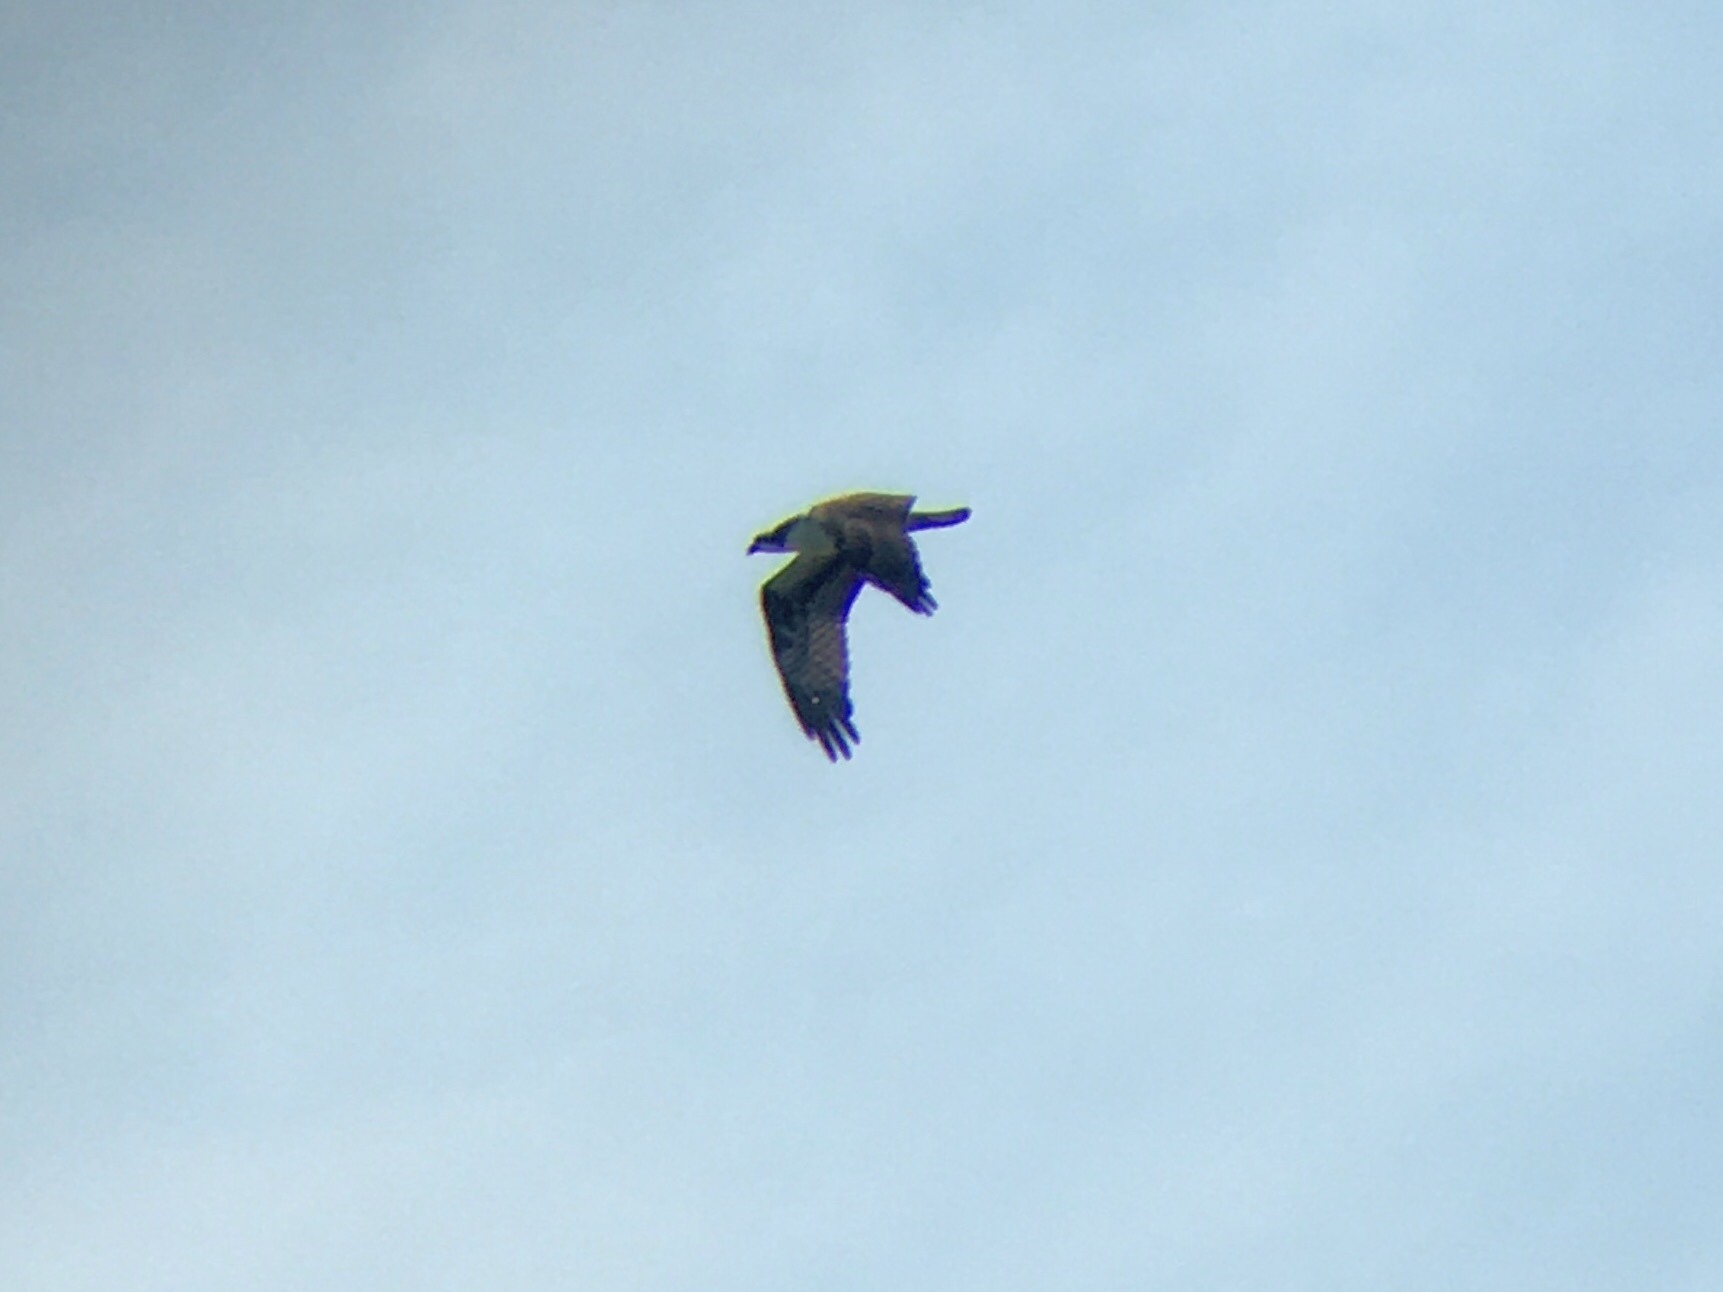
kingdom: Animalia
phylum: Chordata
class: Aves
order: Accipitriformes
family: Pandionidae
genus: Pandion
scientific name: Pandion haliaetus
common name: Osprey
